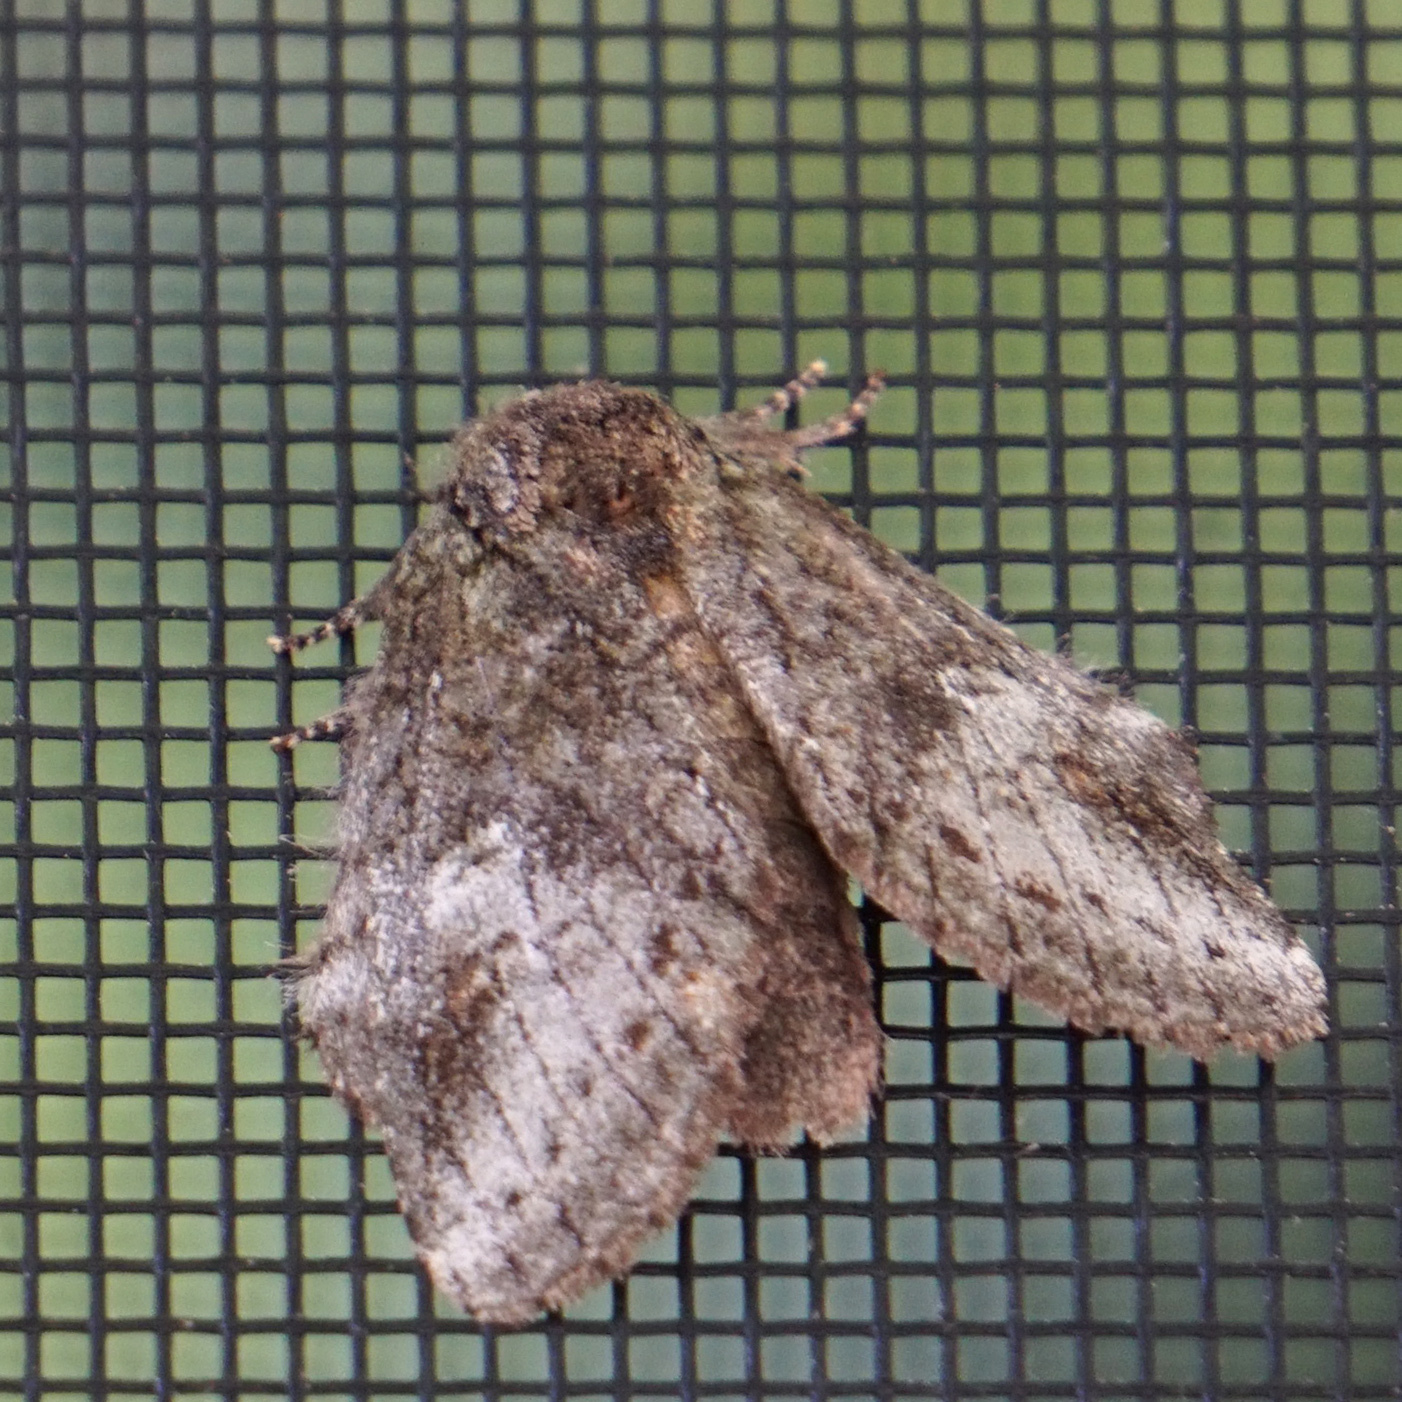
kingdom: Animalia
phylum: Arthropoda
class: Insecta
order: Lepidoptera
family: Notodontidae
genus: Disphragis
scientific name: Disphragis Cecrita guttivitta
